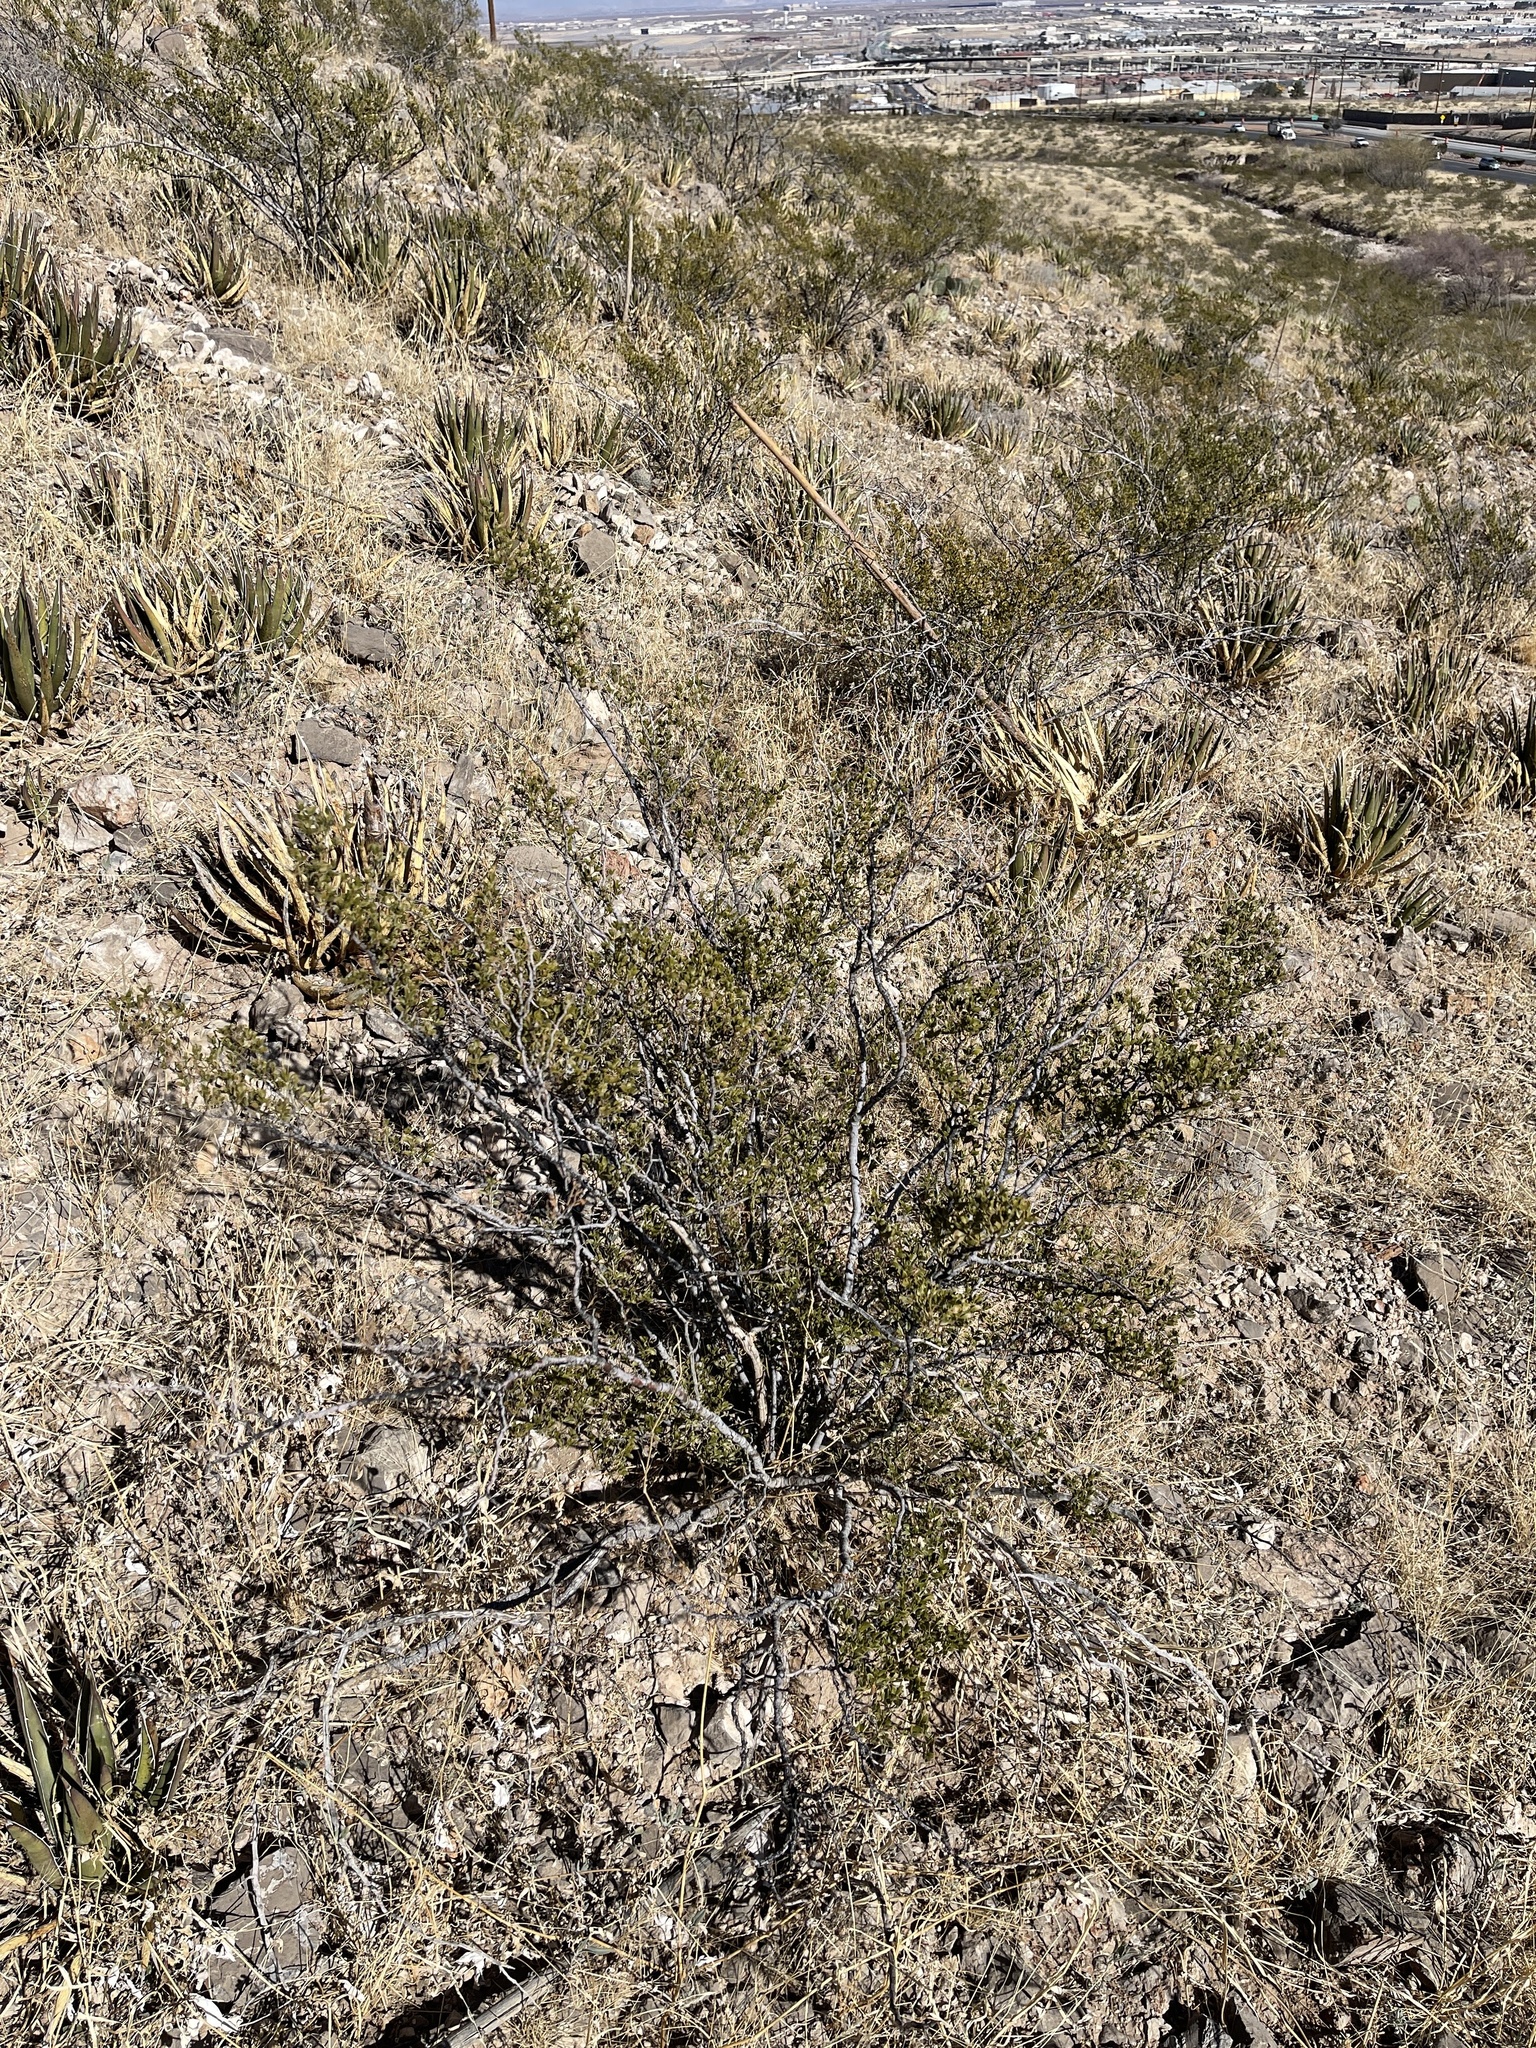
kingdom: Plantae
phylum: Tracheophyta
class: Magnoliopsida
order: Zygophyllales
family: Zygophyllaceae
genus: Larrea
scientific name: Larrea tridentata
